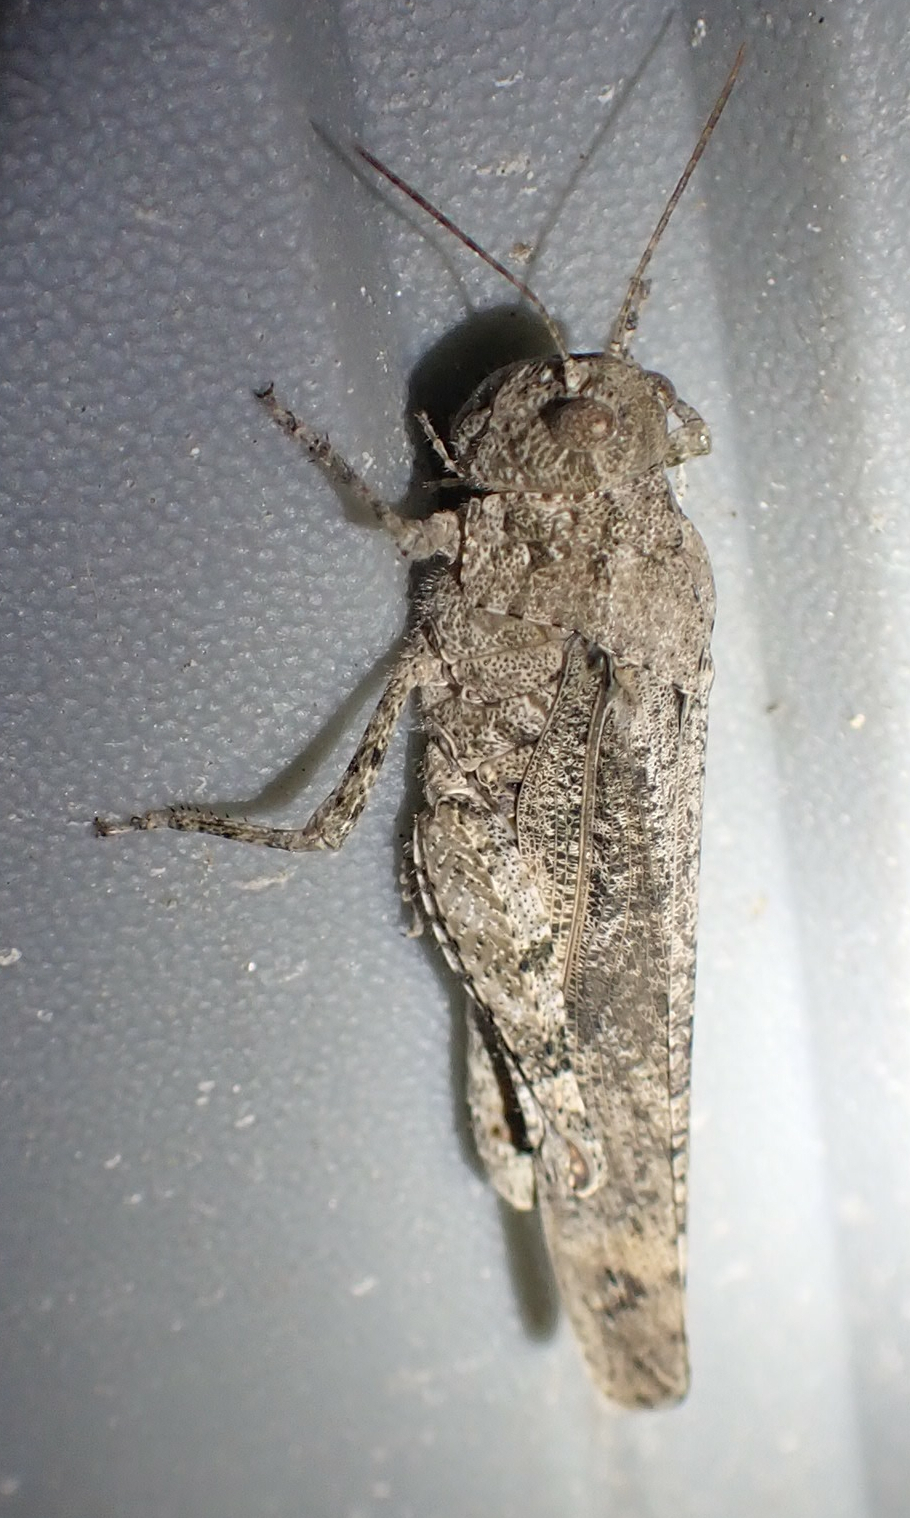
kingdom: Animalia
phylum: Arthropoda
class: Insecta
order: Orthoptera
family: Acrididae
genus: Dissosteira
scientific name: Dissosteira carolina
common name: Carolina grasshopper
